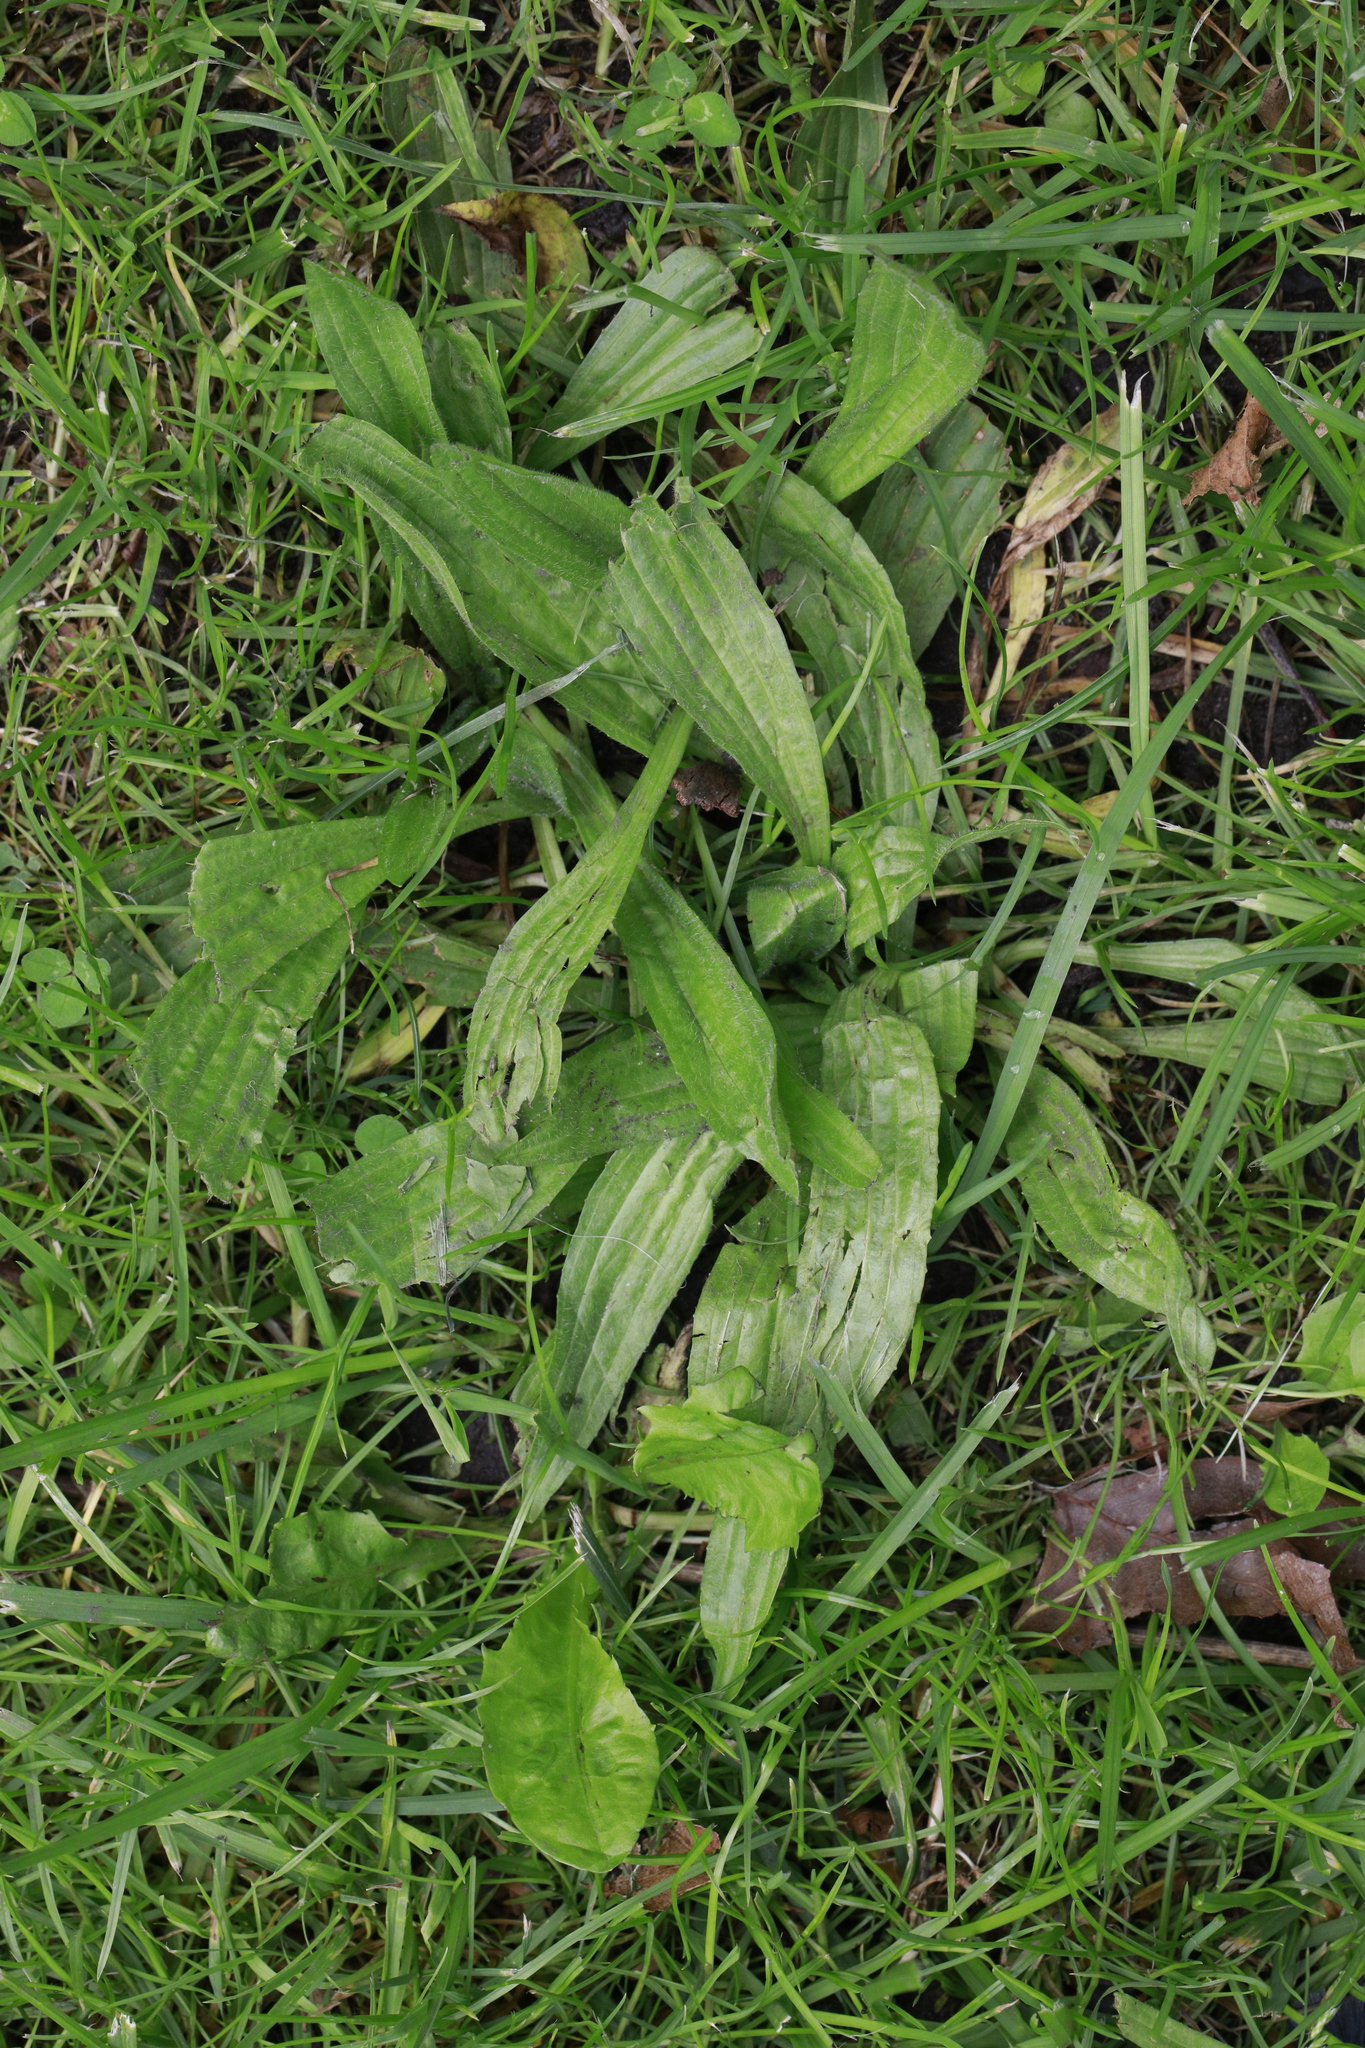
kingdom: Plantae
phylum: Tracheophyta
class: Magnoliopsida
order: Lamiales
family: Plantaginaceae
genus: Plantago
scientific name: Plantago lanceolata
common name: Ribwort plantain
